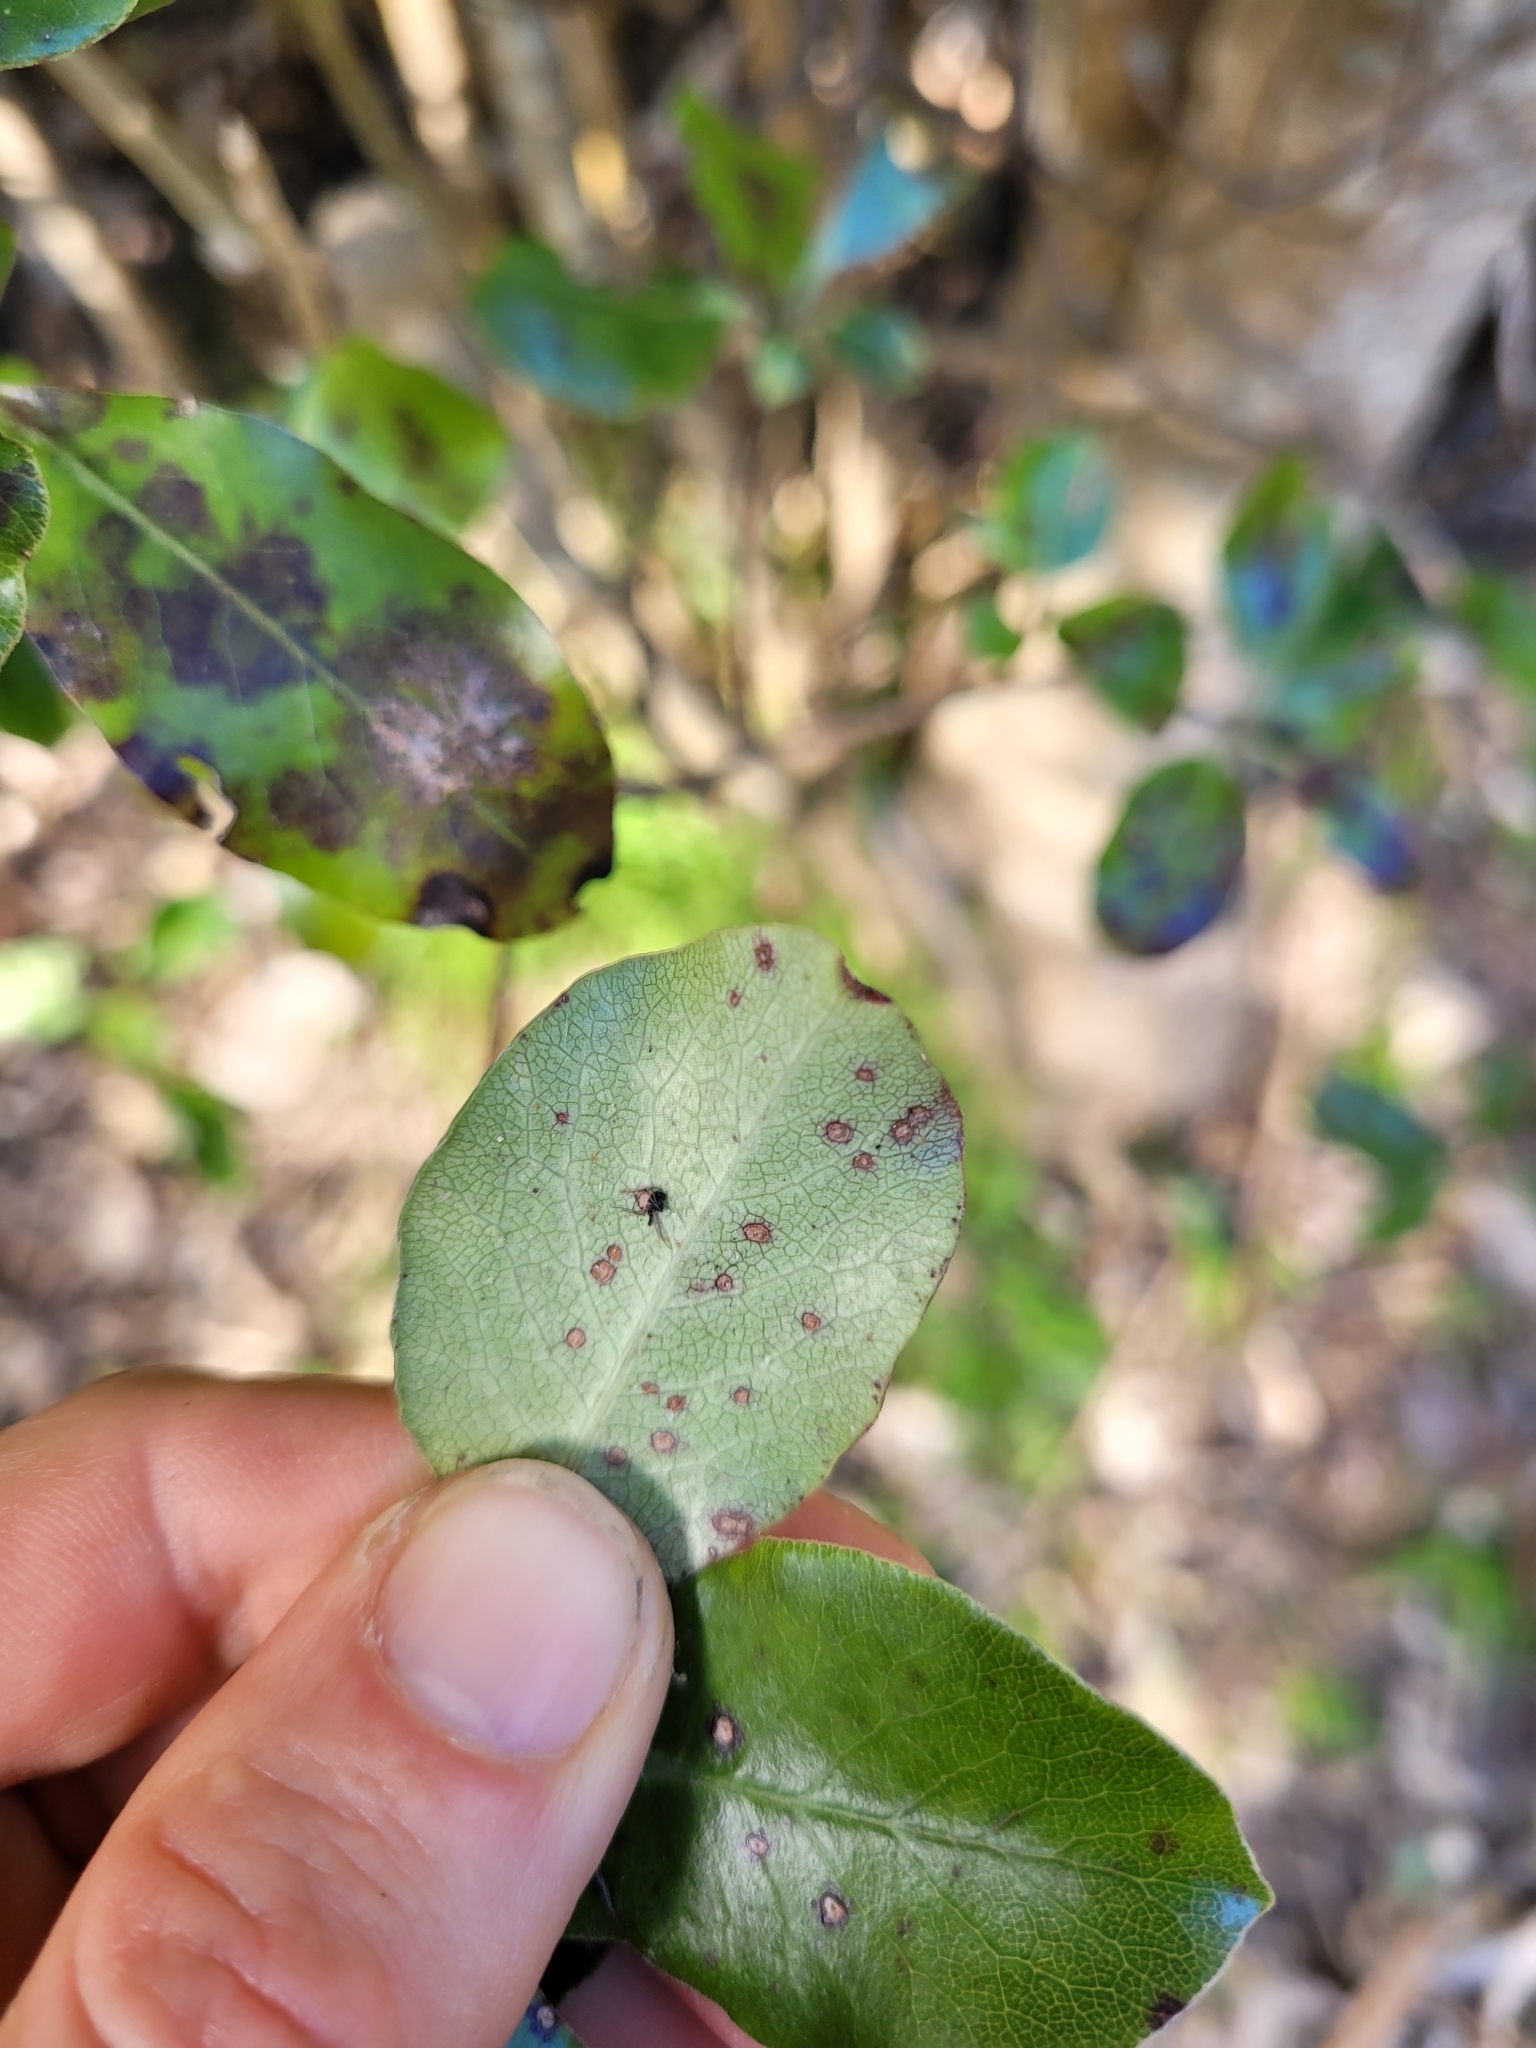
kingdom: Plantae
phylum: Tracheophyta
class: Magnoliopsida
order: Apiales
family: Pittosporaceae
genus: Pittosporum
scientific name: Pittosporum tenuifolium
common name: Kohuhu
